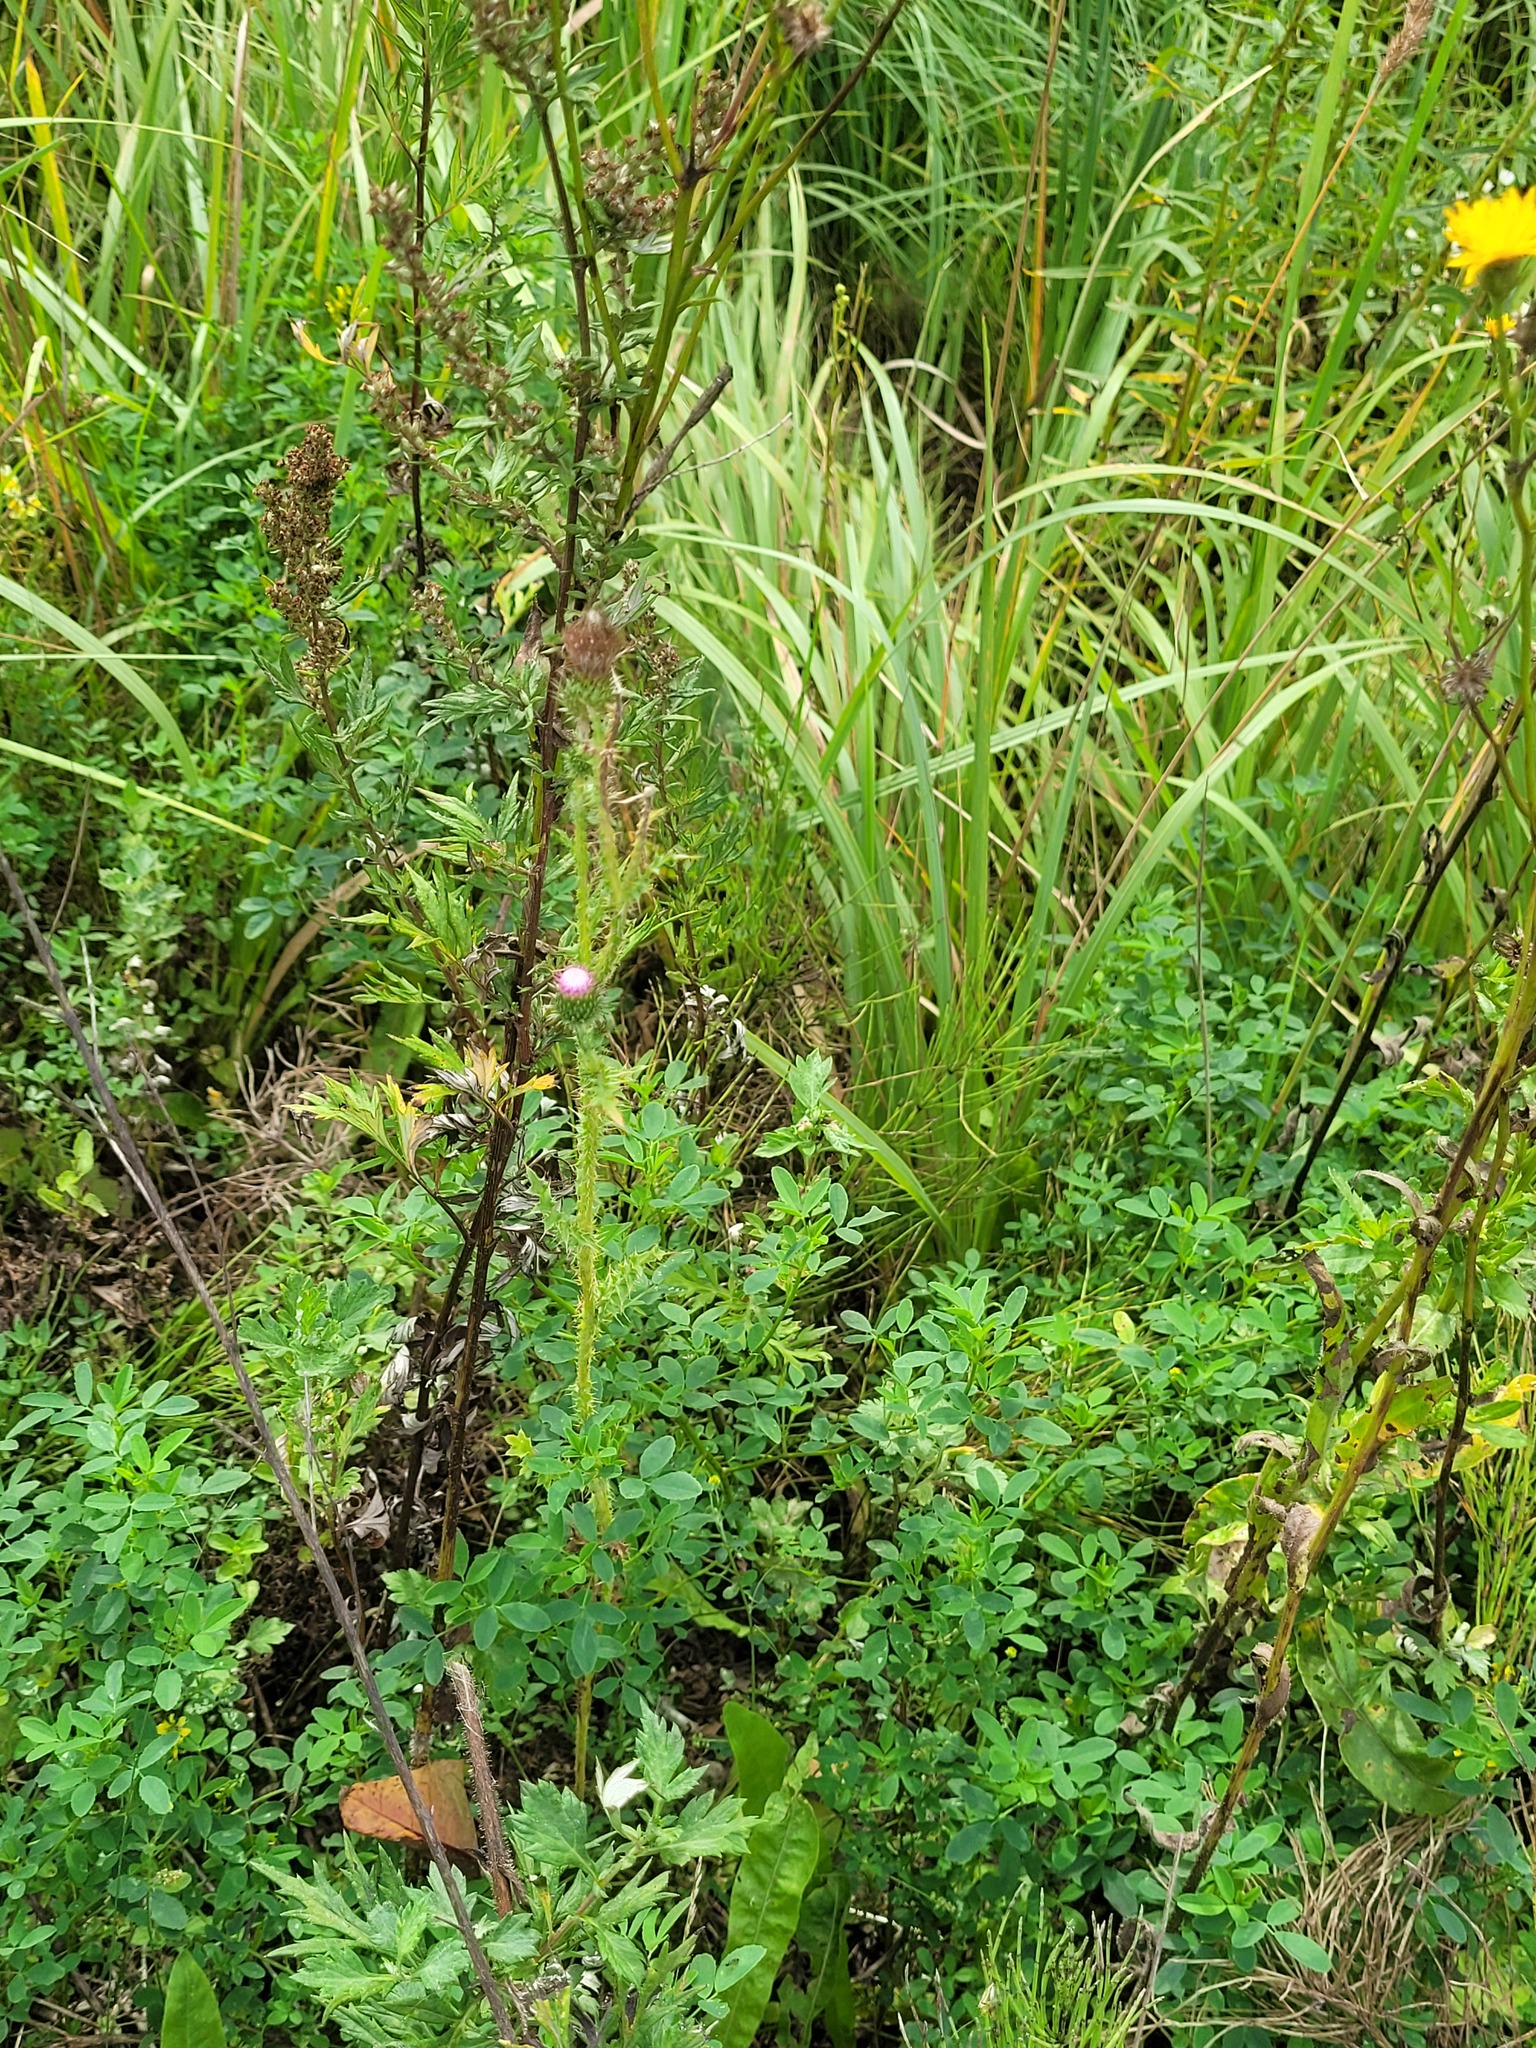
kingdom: Plantae
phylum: Tracheophyta
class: Magnoliopsida
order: Asterales
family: Asteraceae
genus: Carduus
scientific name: Carduus acanthoides
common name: Plumeless thistle
